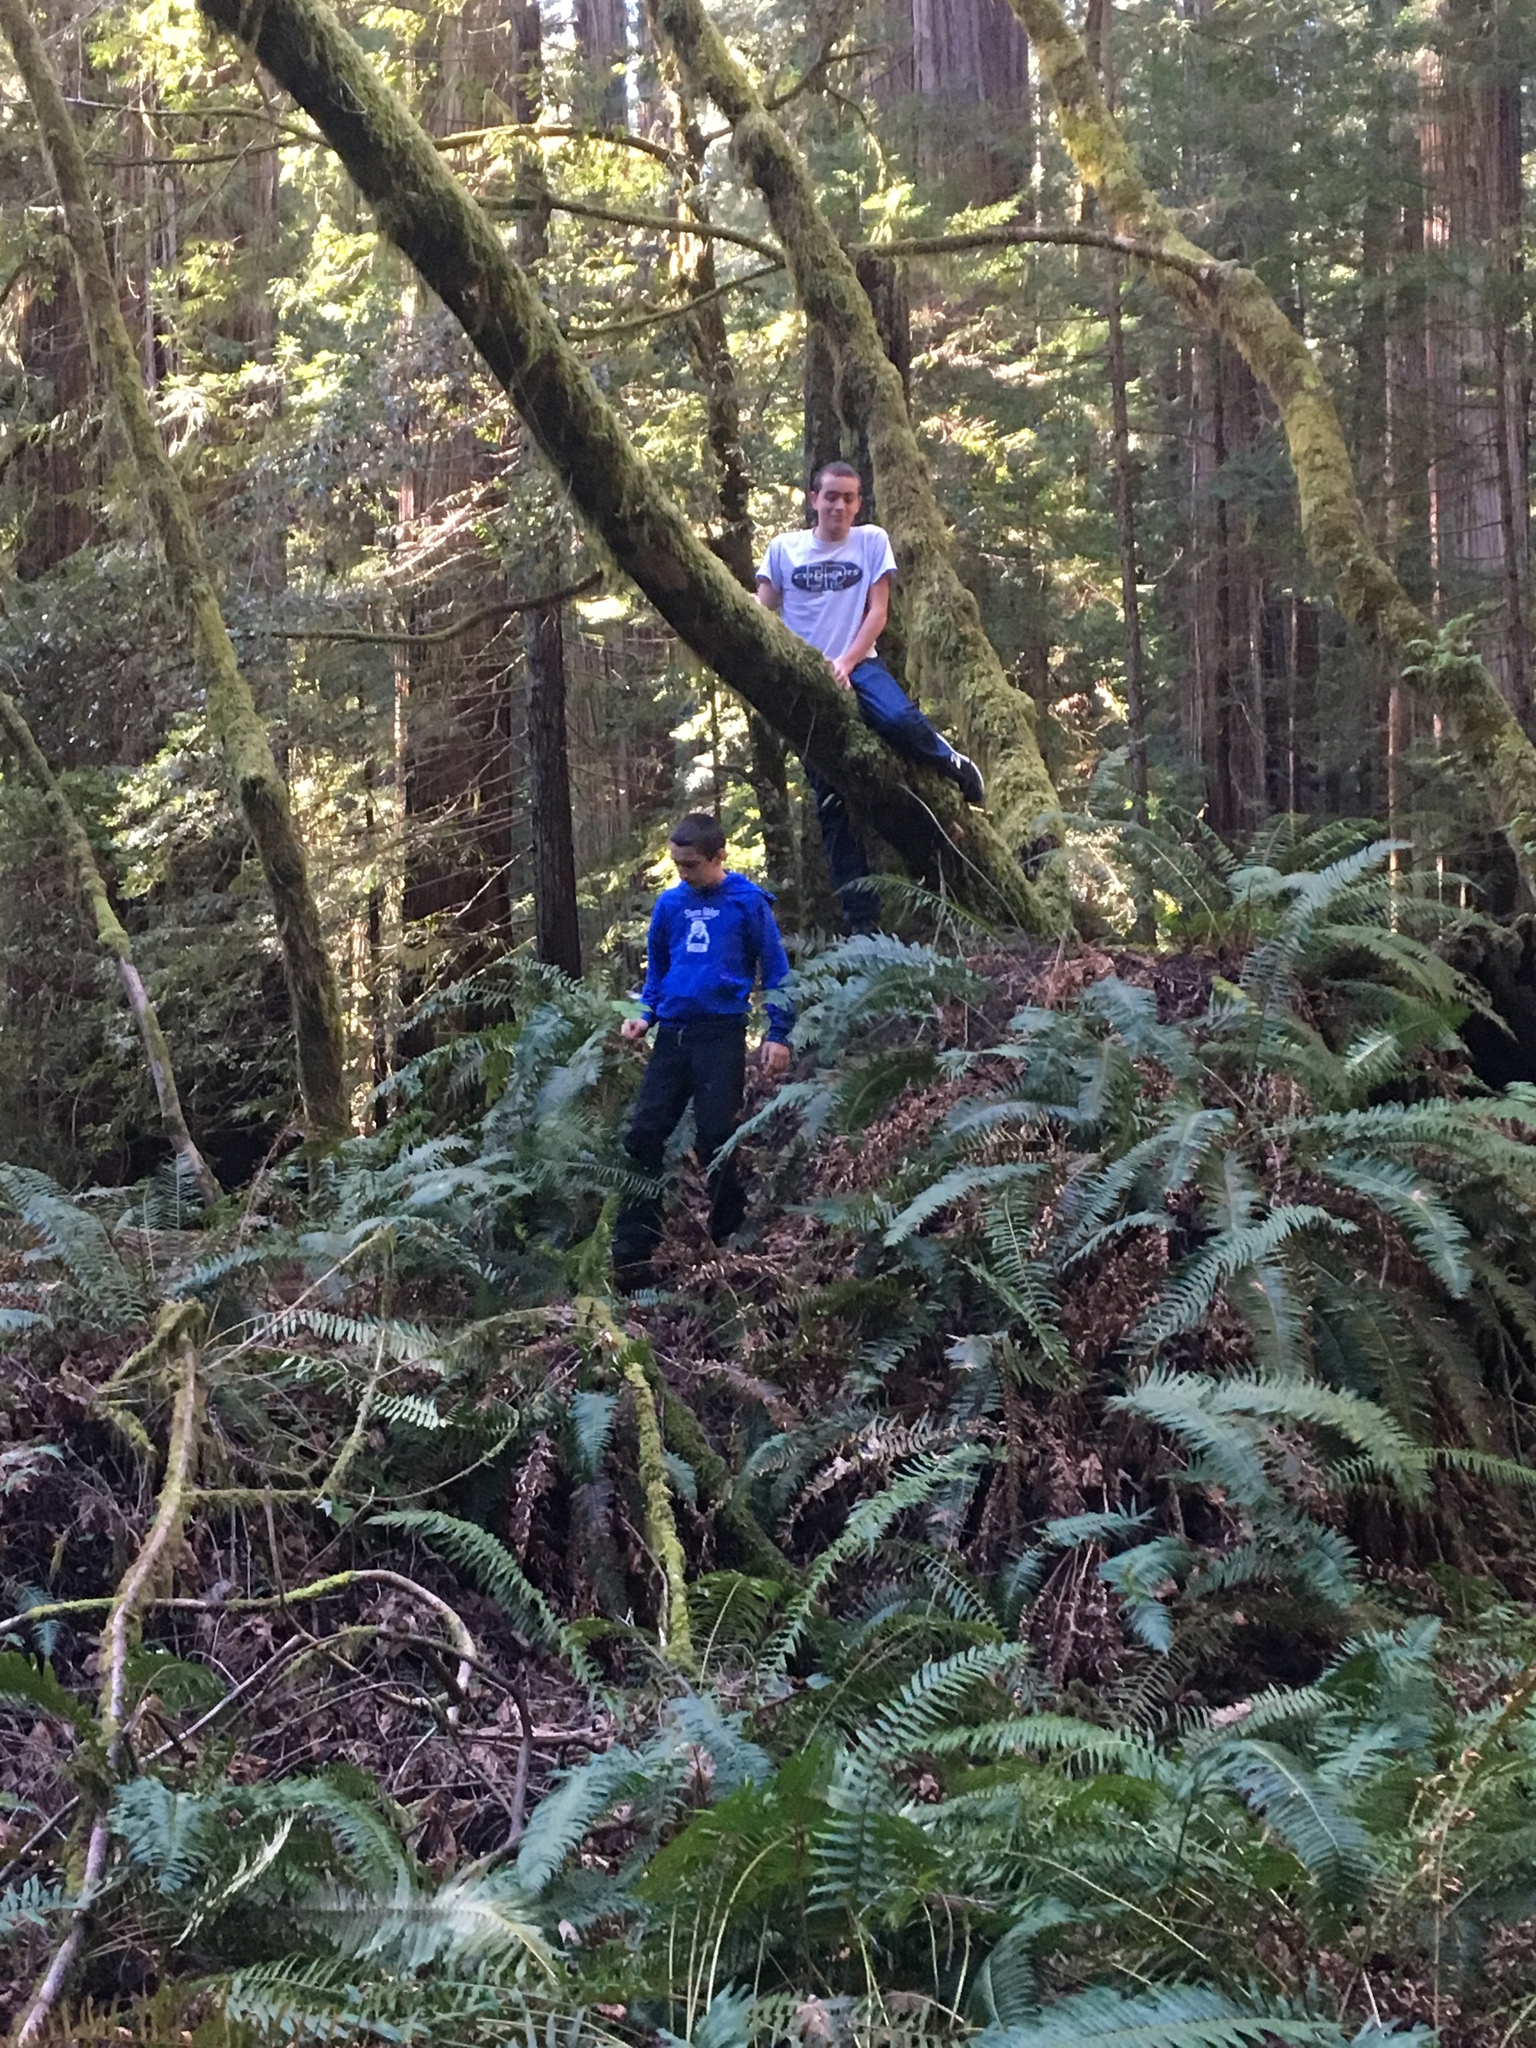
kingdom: Plantae
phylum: Tracheophyta
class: Polypodiopsida
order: Polypodiales
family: Dryopteridaceae
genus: Polystichum
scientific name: Polystichum munitum
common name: Western sword-fern
